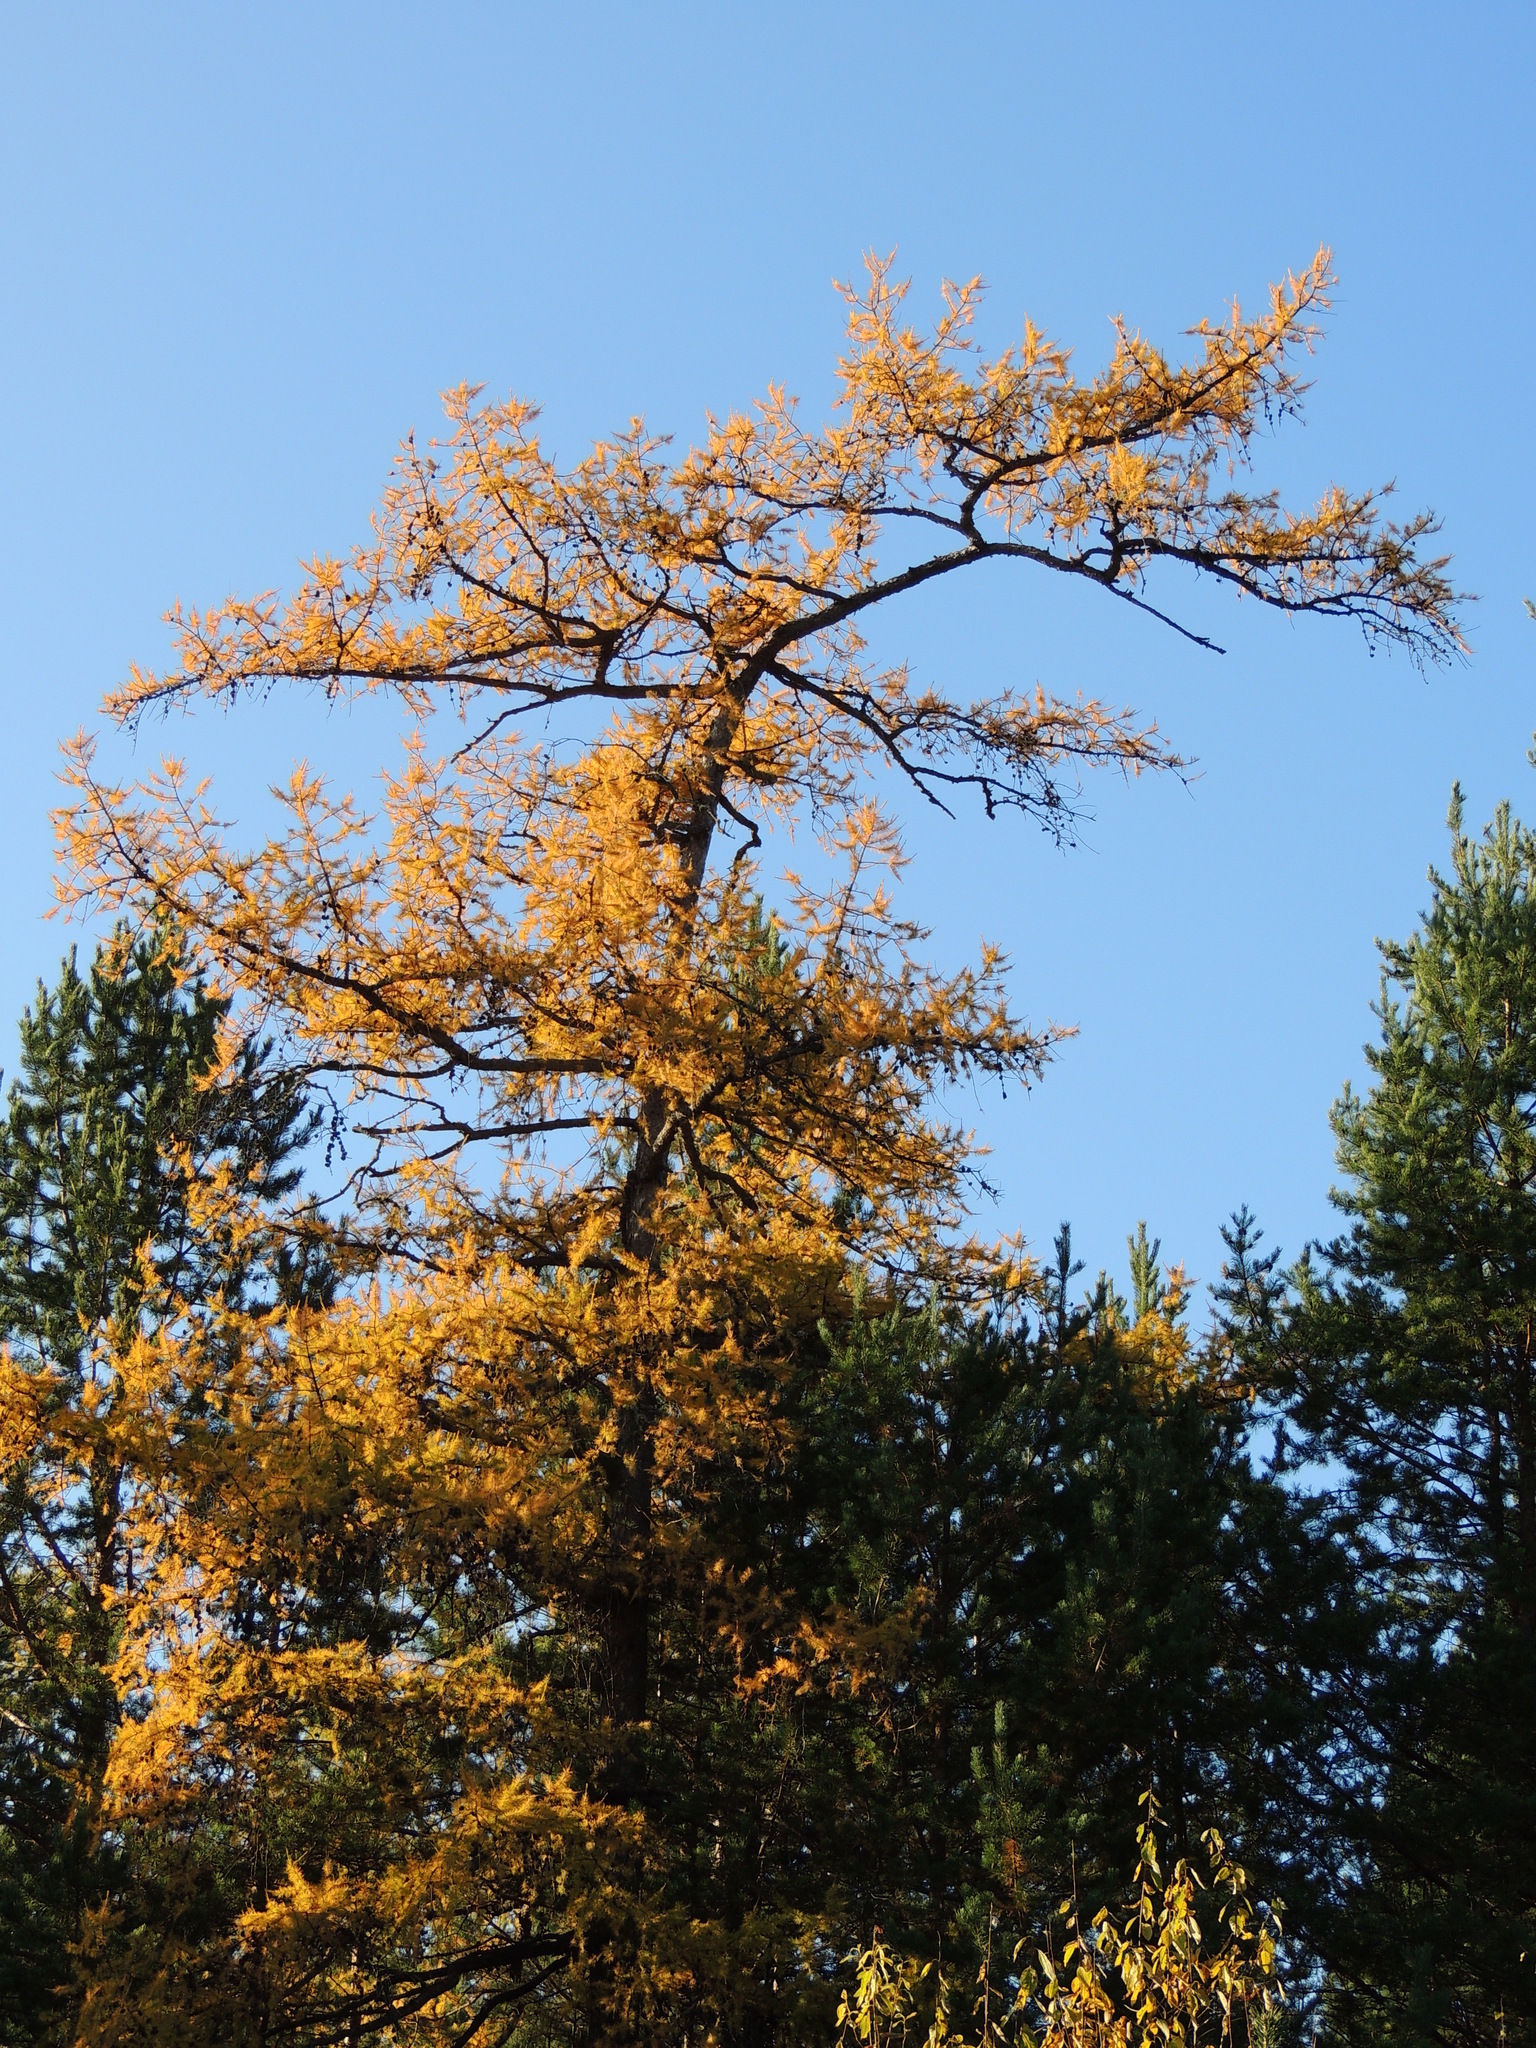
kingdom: Plantae
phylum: Tracheophyta
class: Pinopsida
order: Pinales
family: Pinaceae
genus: Larix
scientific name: Larix sibirica
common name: Siberian larch
